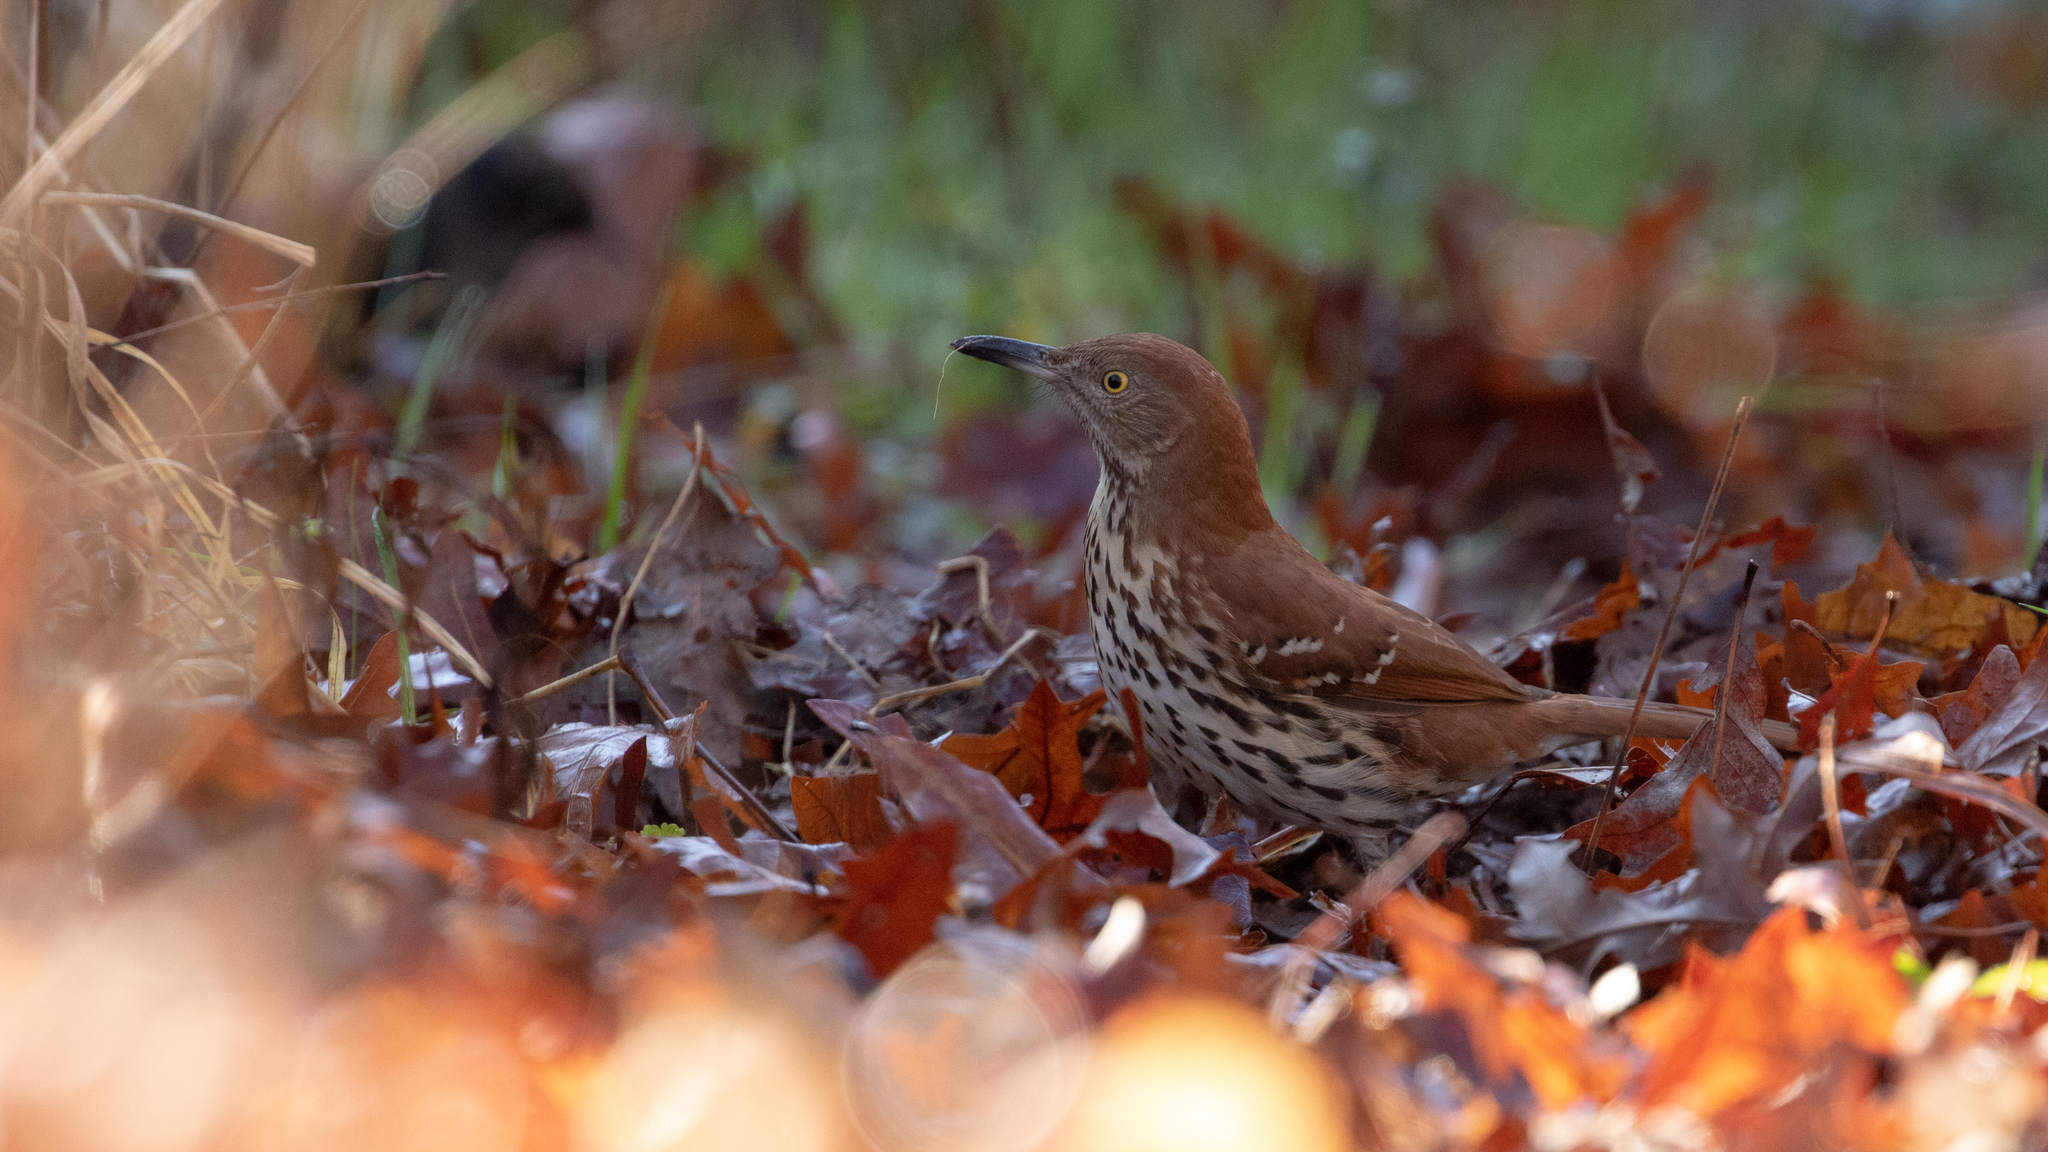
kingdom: Animalia
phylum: Chordata
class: Aves
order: Passeriformes
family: Mimidae
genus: Toxostoma
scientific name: Toxostoma rufum
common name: Brown thrasher
